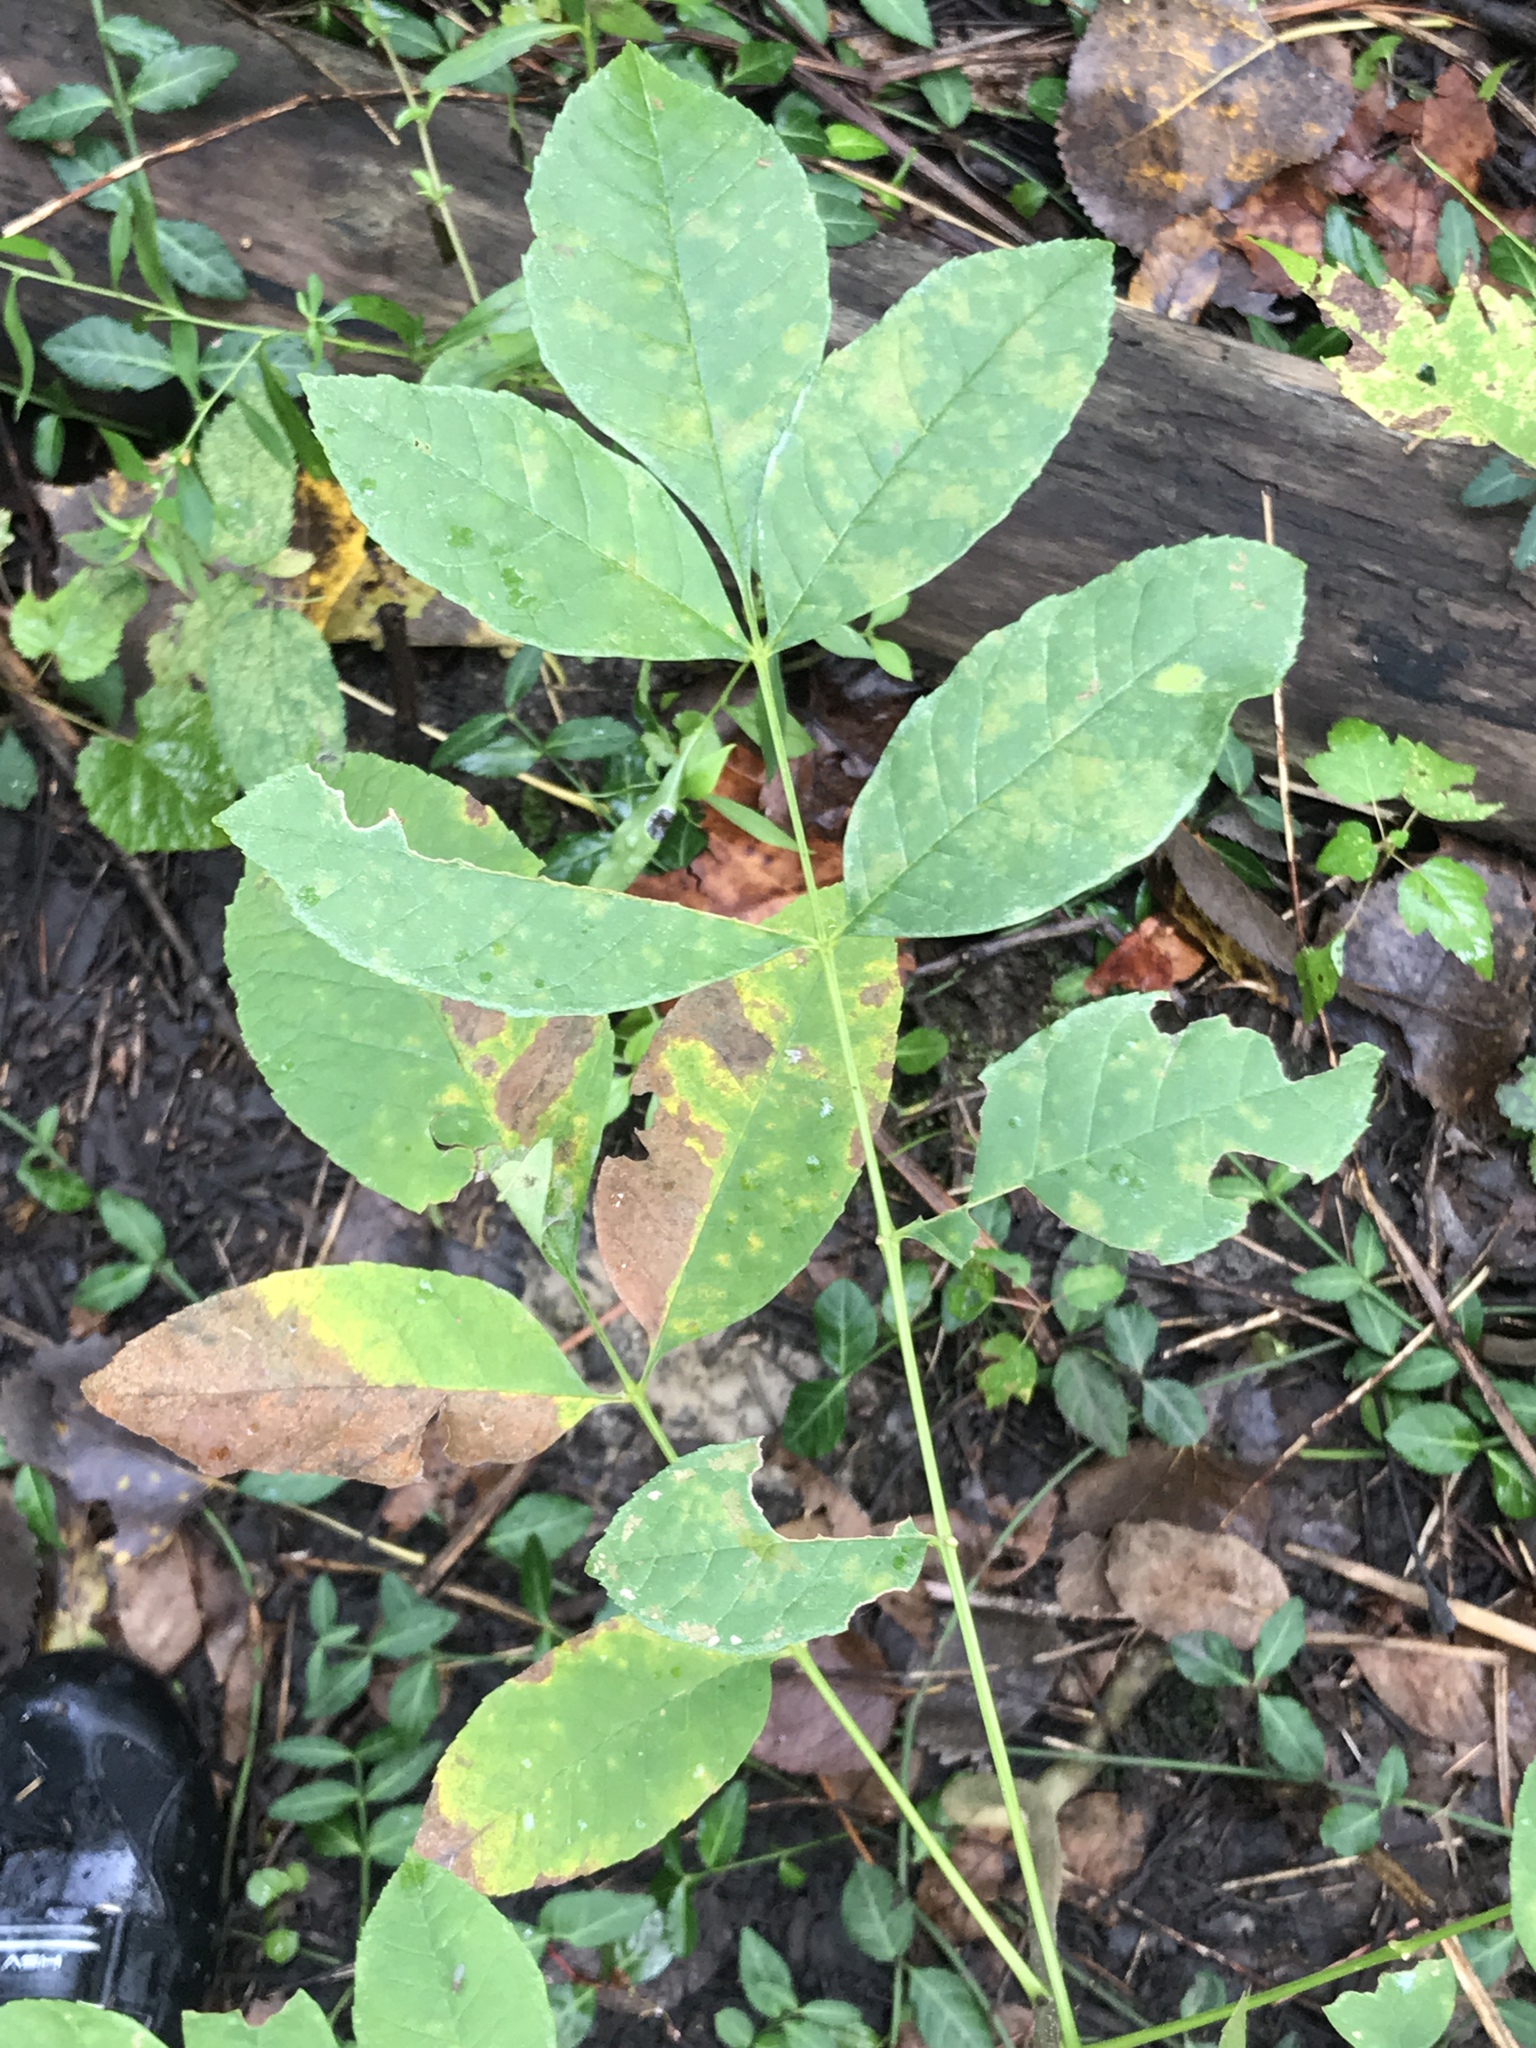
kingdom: Plantae
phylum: Tracheophyta
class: Magnoliopsida
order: Lamiales
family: Oleaceae
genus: Fraxinus
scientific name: Fraxinus pennsylvanica
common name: Green ash
